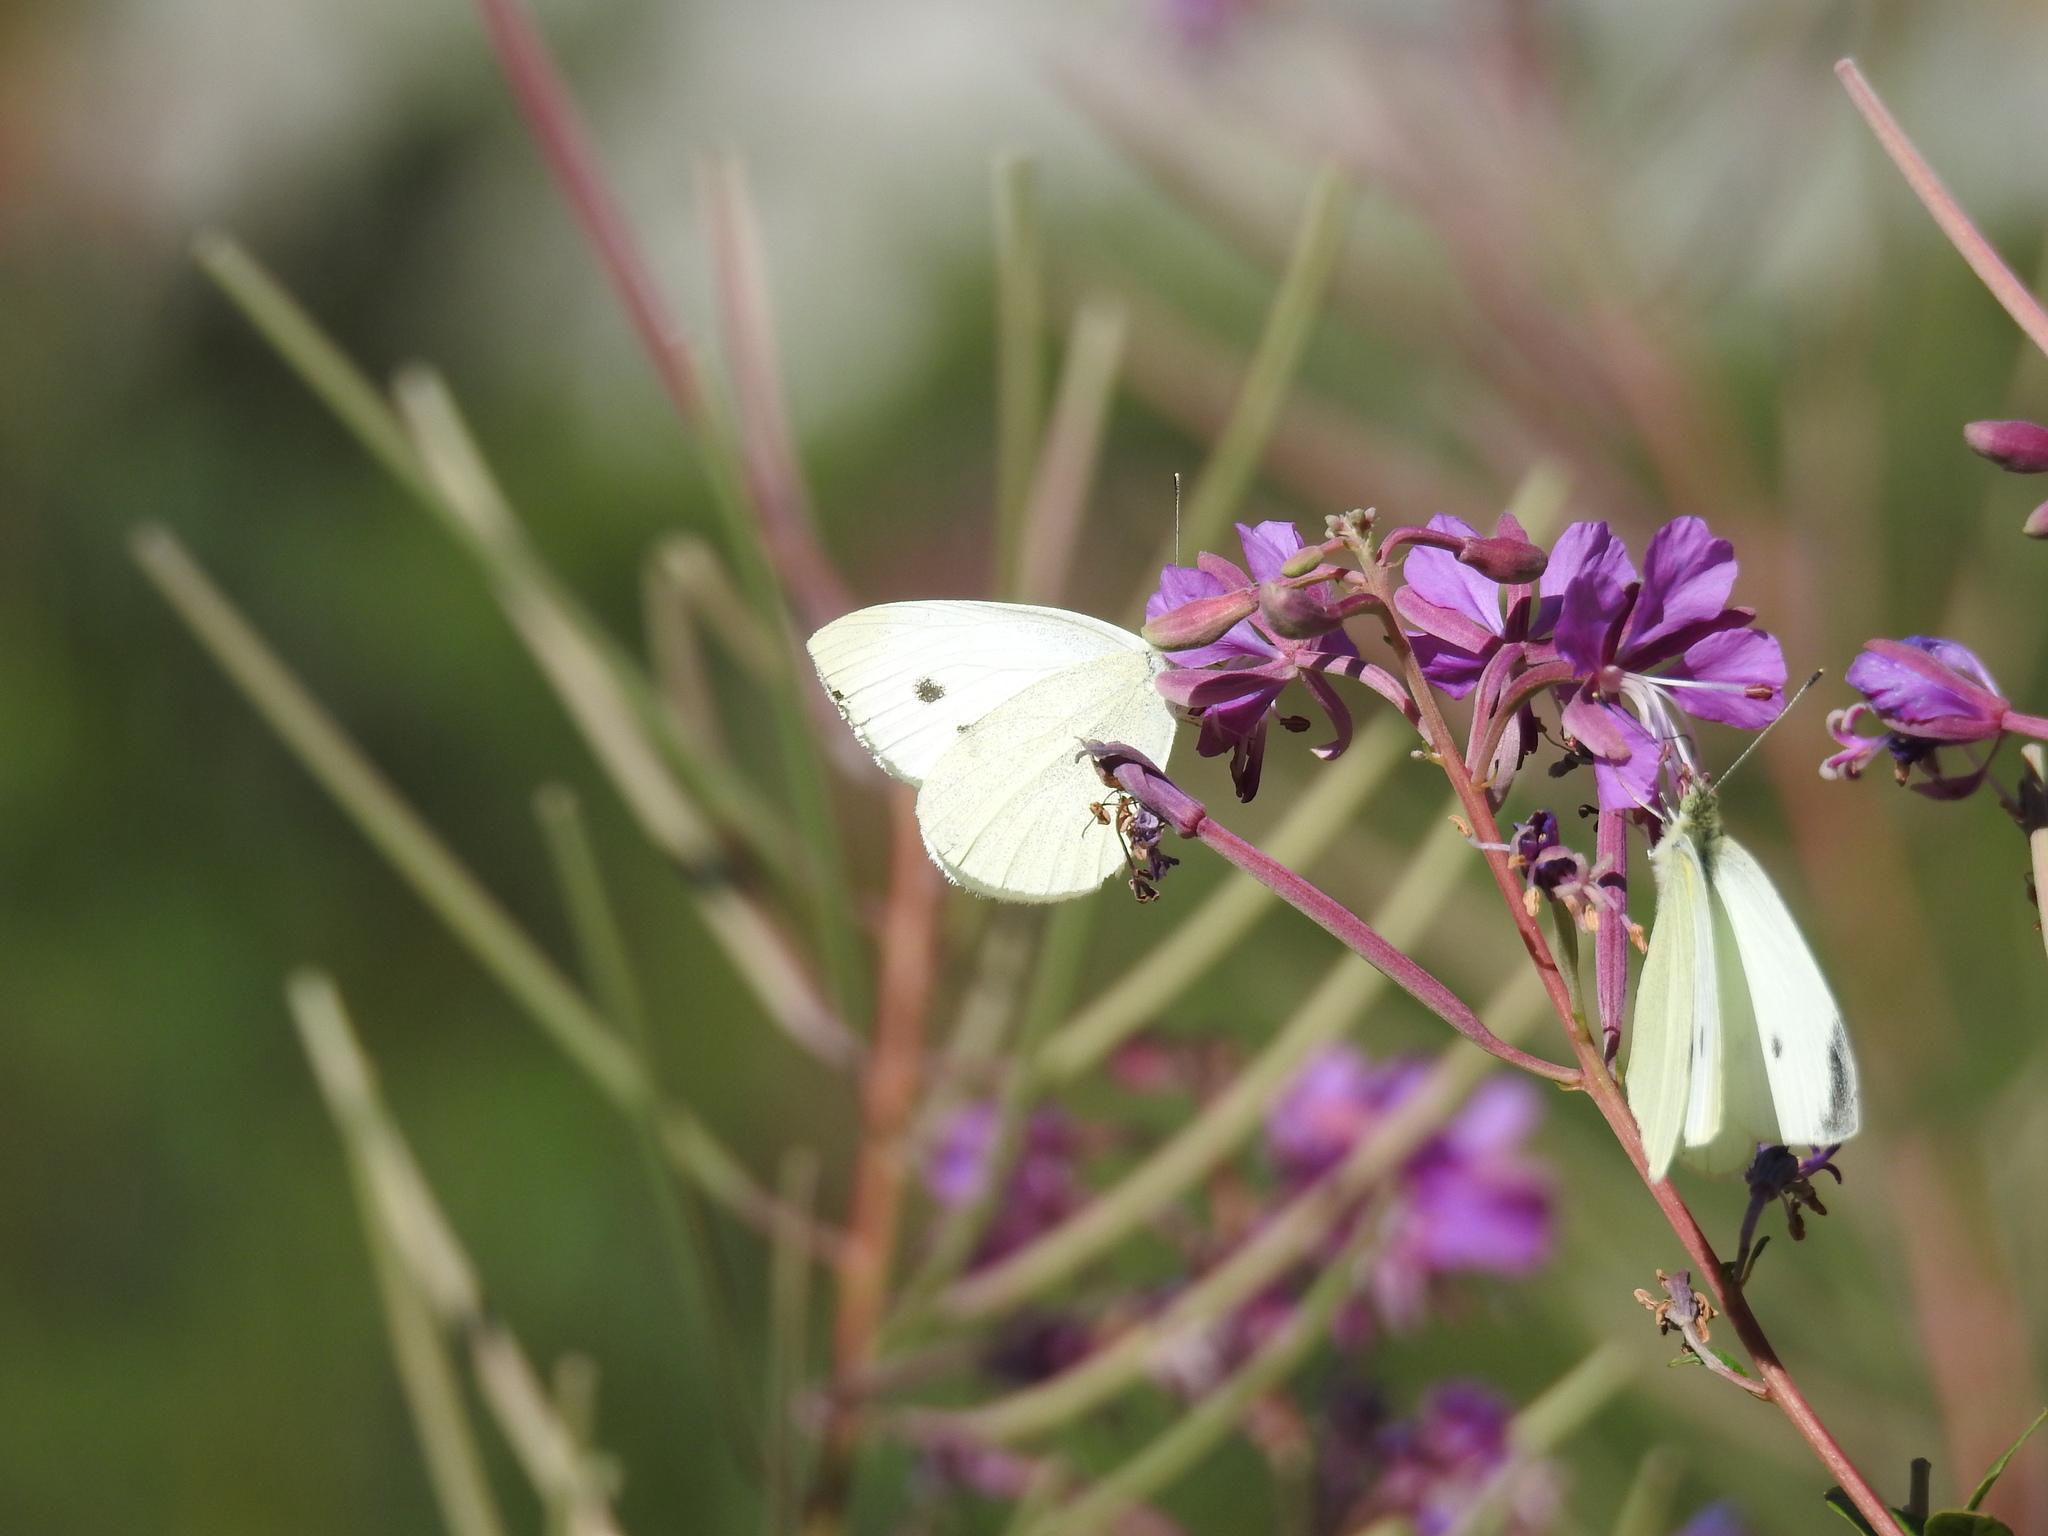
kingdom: Animalia
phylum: Arthropoda
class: Insecta
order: Lepidoptera
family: Pieridae
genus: Pieris
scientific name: Pieris rapae
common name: Small white
